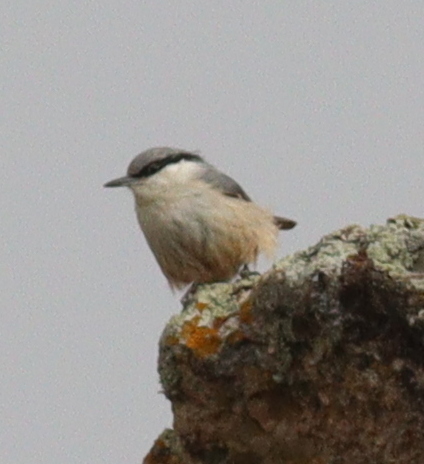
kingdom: Animalia
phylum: Chordata
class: Aves
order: Passeriformes
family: Sittidae
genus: Sitta
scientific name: Sitta neumayer
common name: Western rock nuthatch
